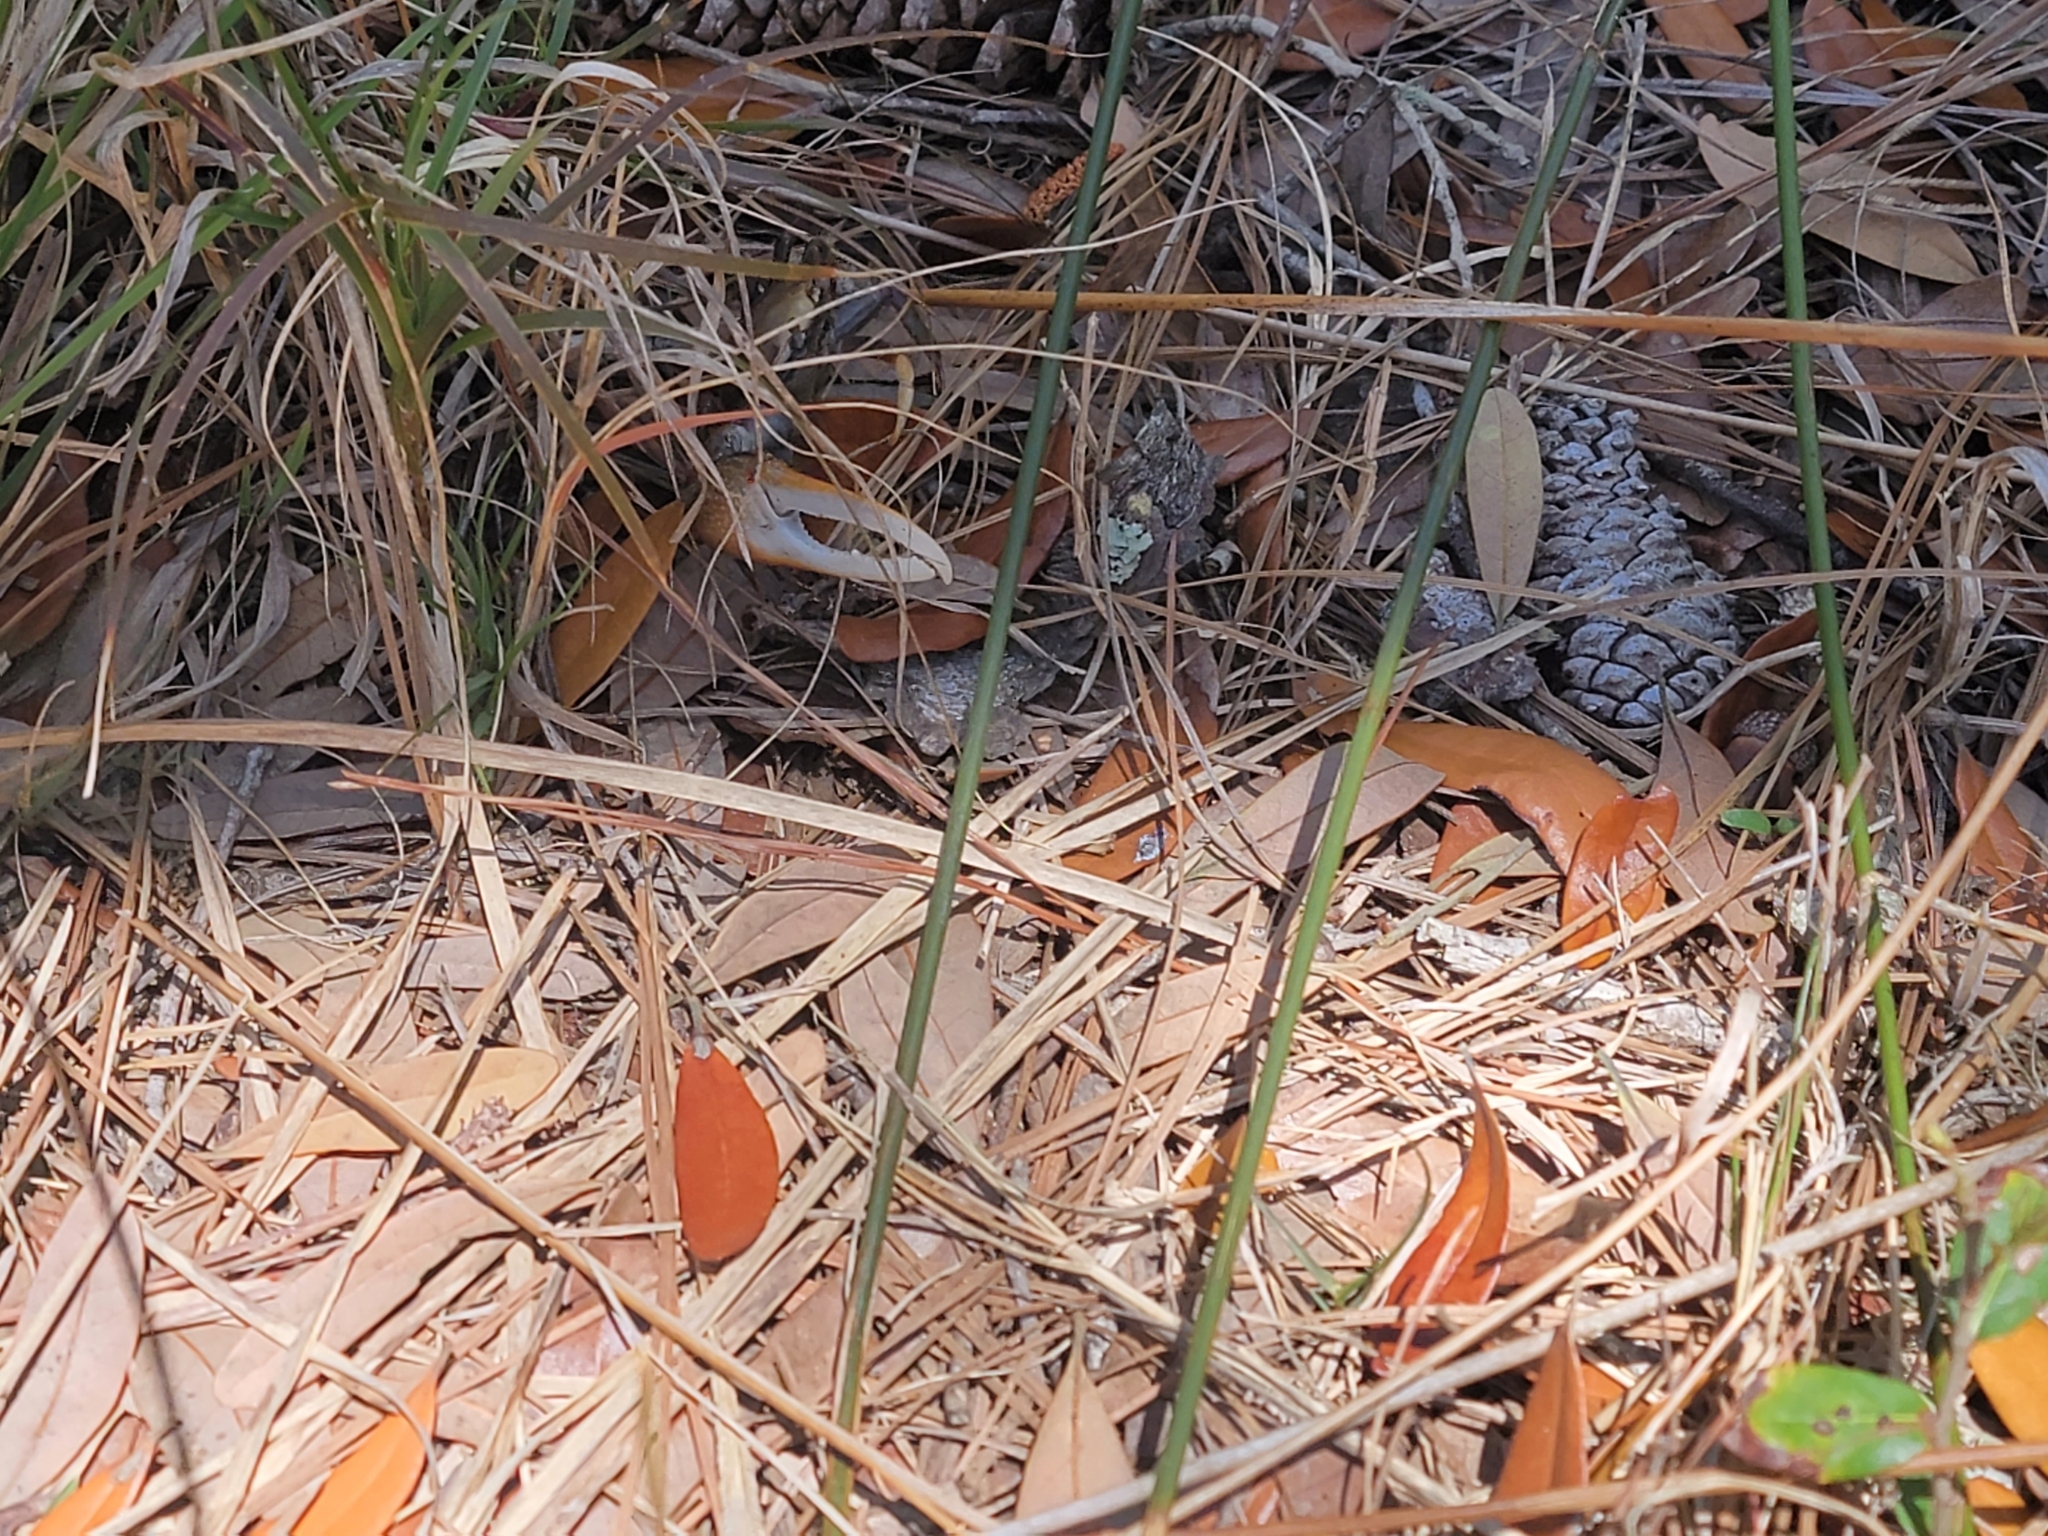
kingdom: Animalia
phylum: Arthropoda
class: Malacostraca
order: Decapoda
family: Ocypodidae
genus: Minuca
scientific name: Minuca minax
